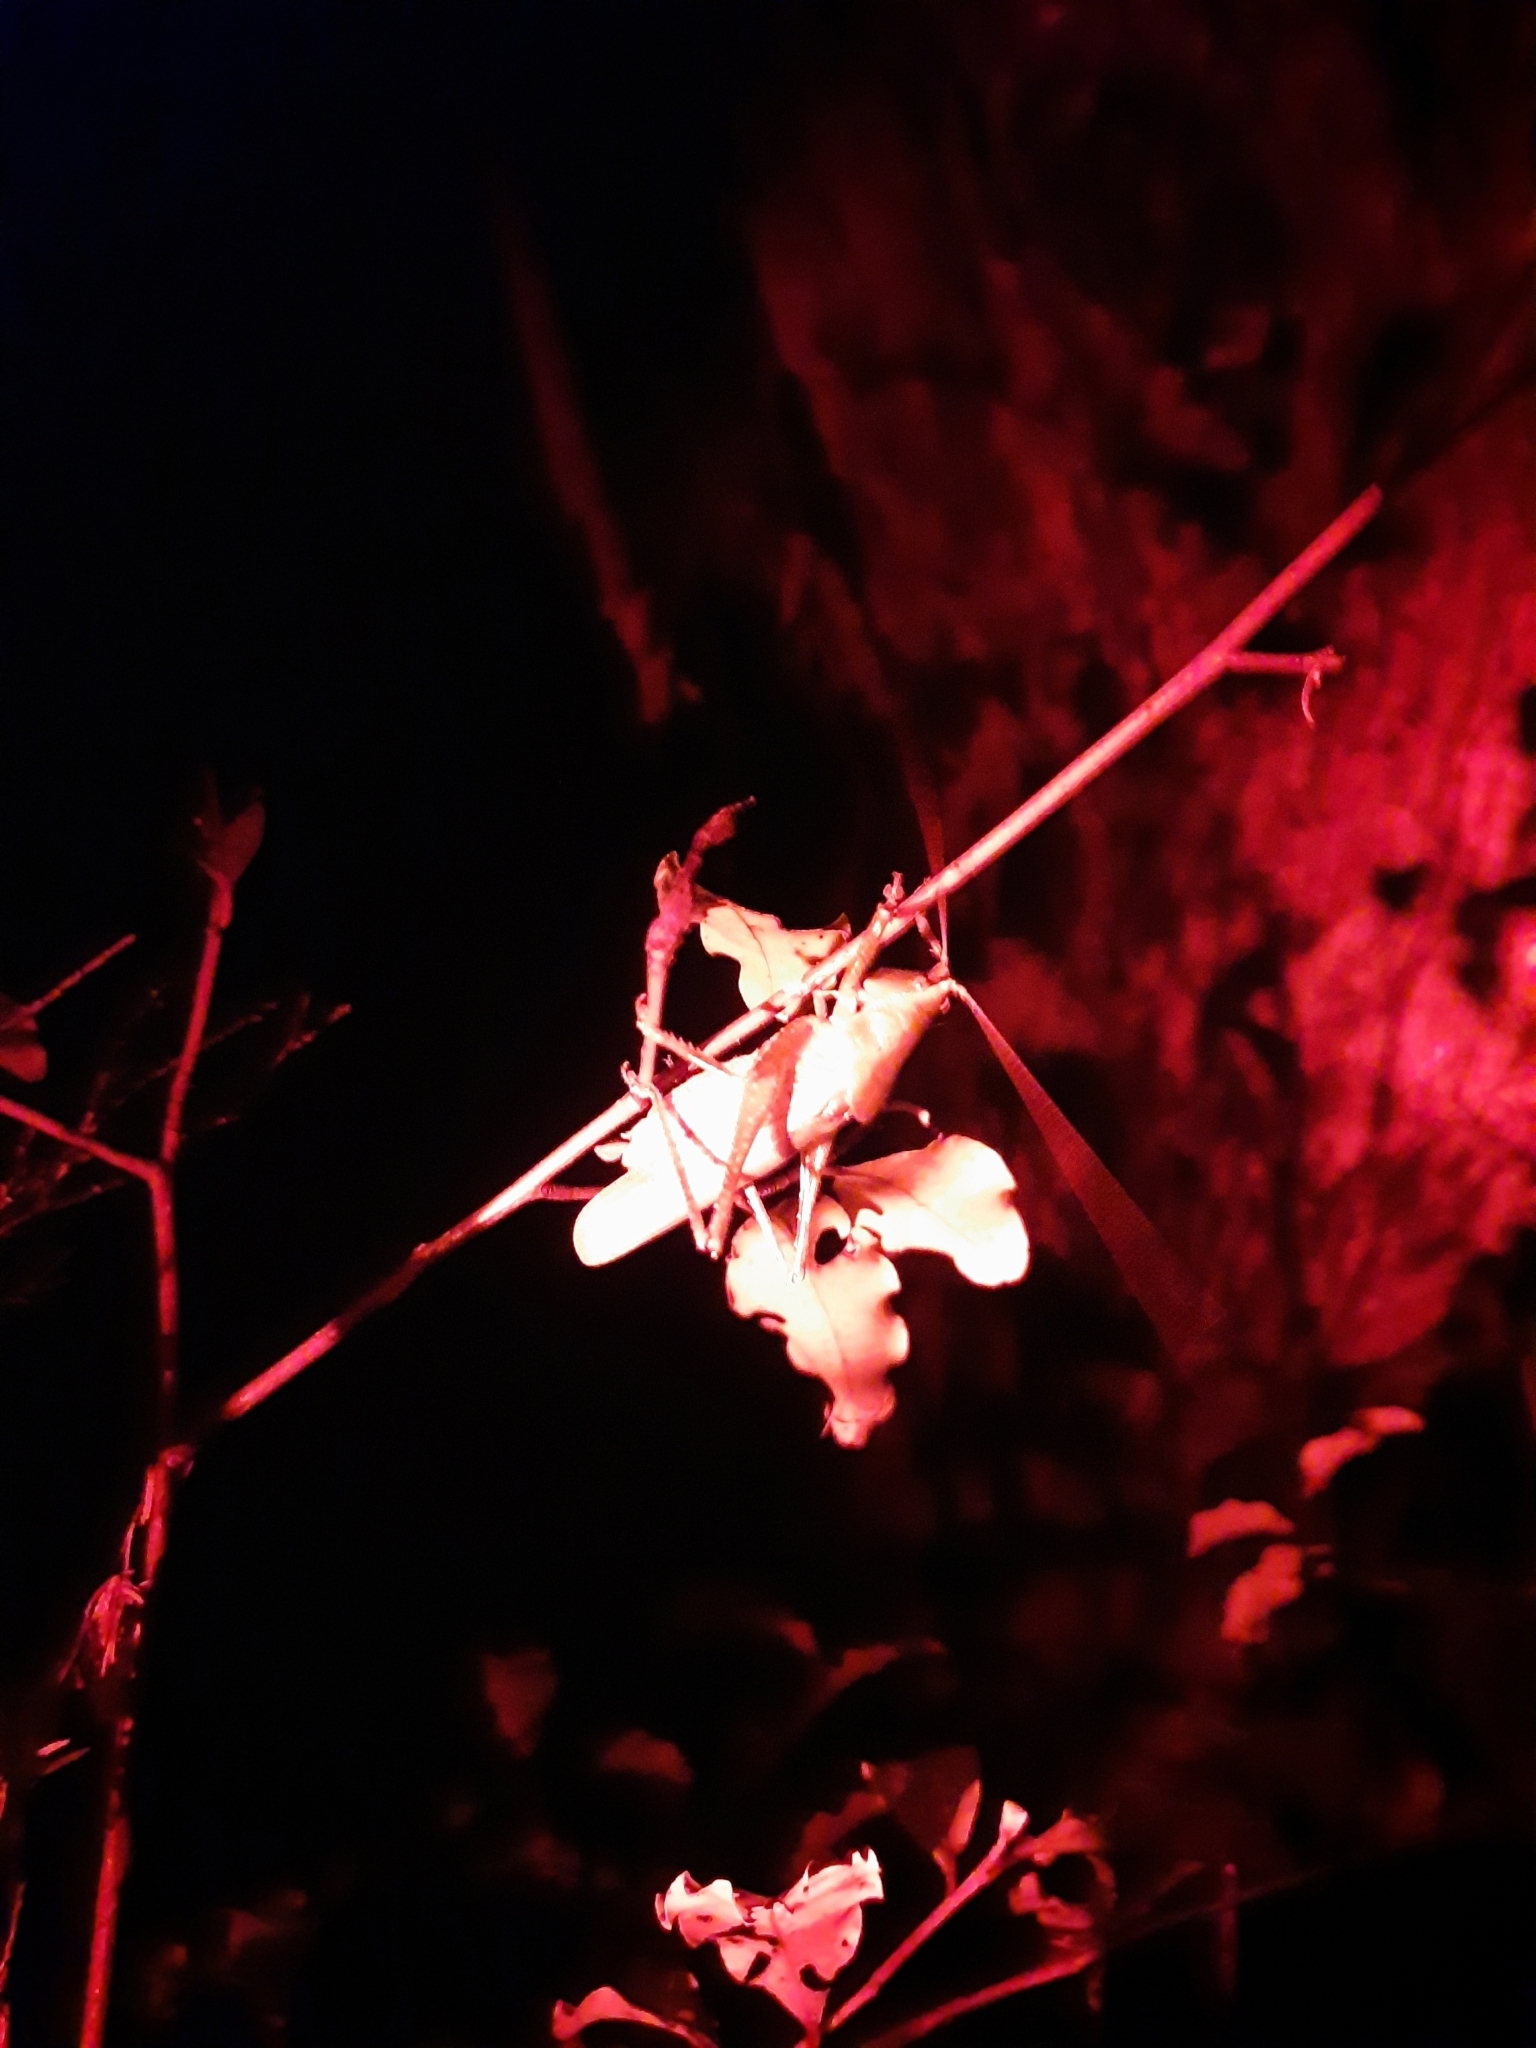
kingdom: Animalia
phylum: Arthropoda
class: Insecta
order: Orthoptera
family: Tettigoniidae
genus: Austrosalomona
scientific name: Austrosalomona falcata
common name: Olive-green coastal katydid
